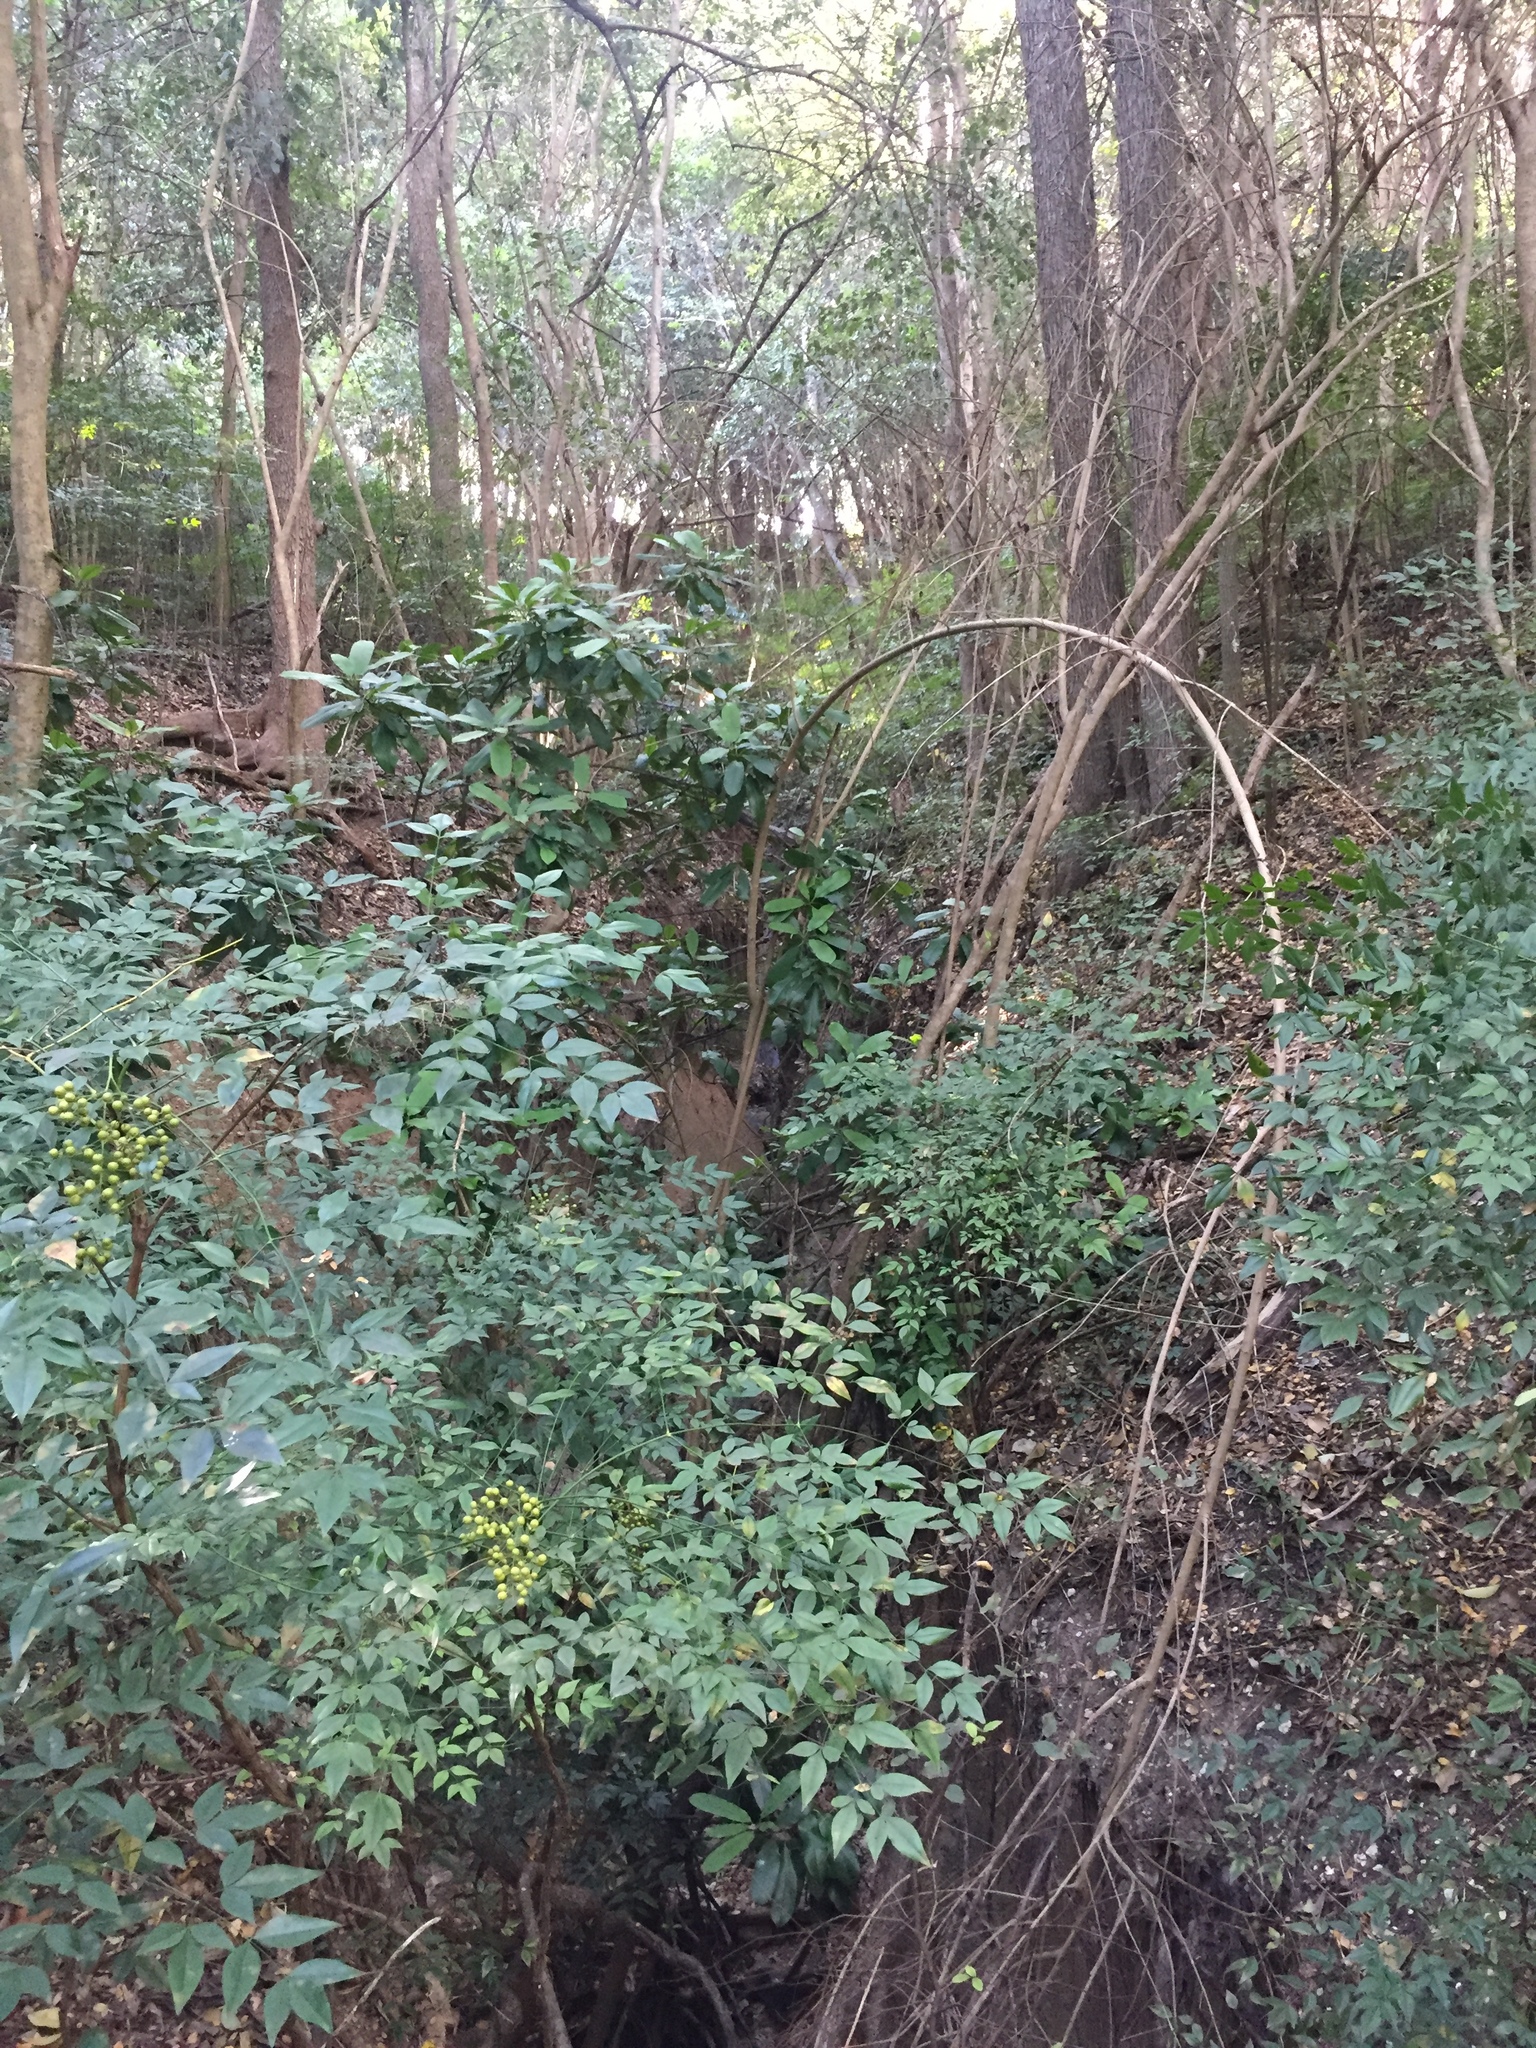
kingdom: Plantae
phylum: Tracheophyta
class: Magnoliopsida
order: Ranunculales
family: Berberidaceae
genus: Nandina
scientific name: Nandina domestica
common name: Sacred bamboo
